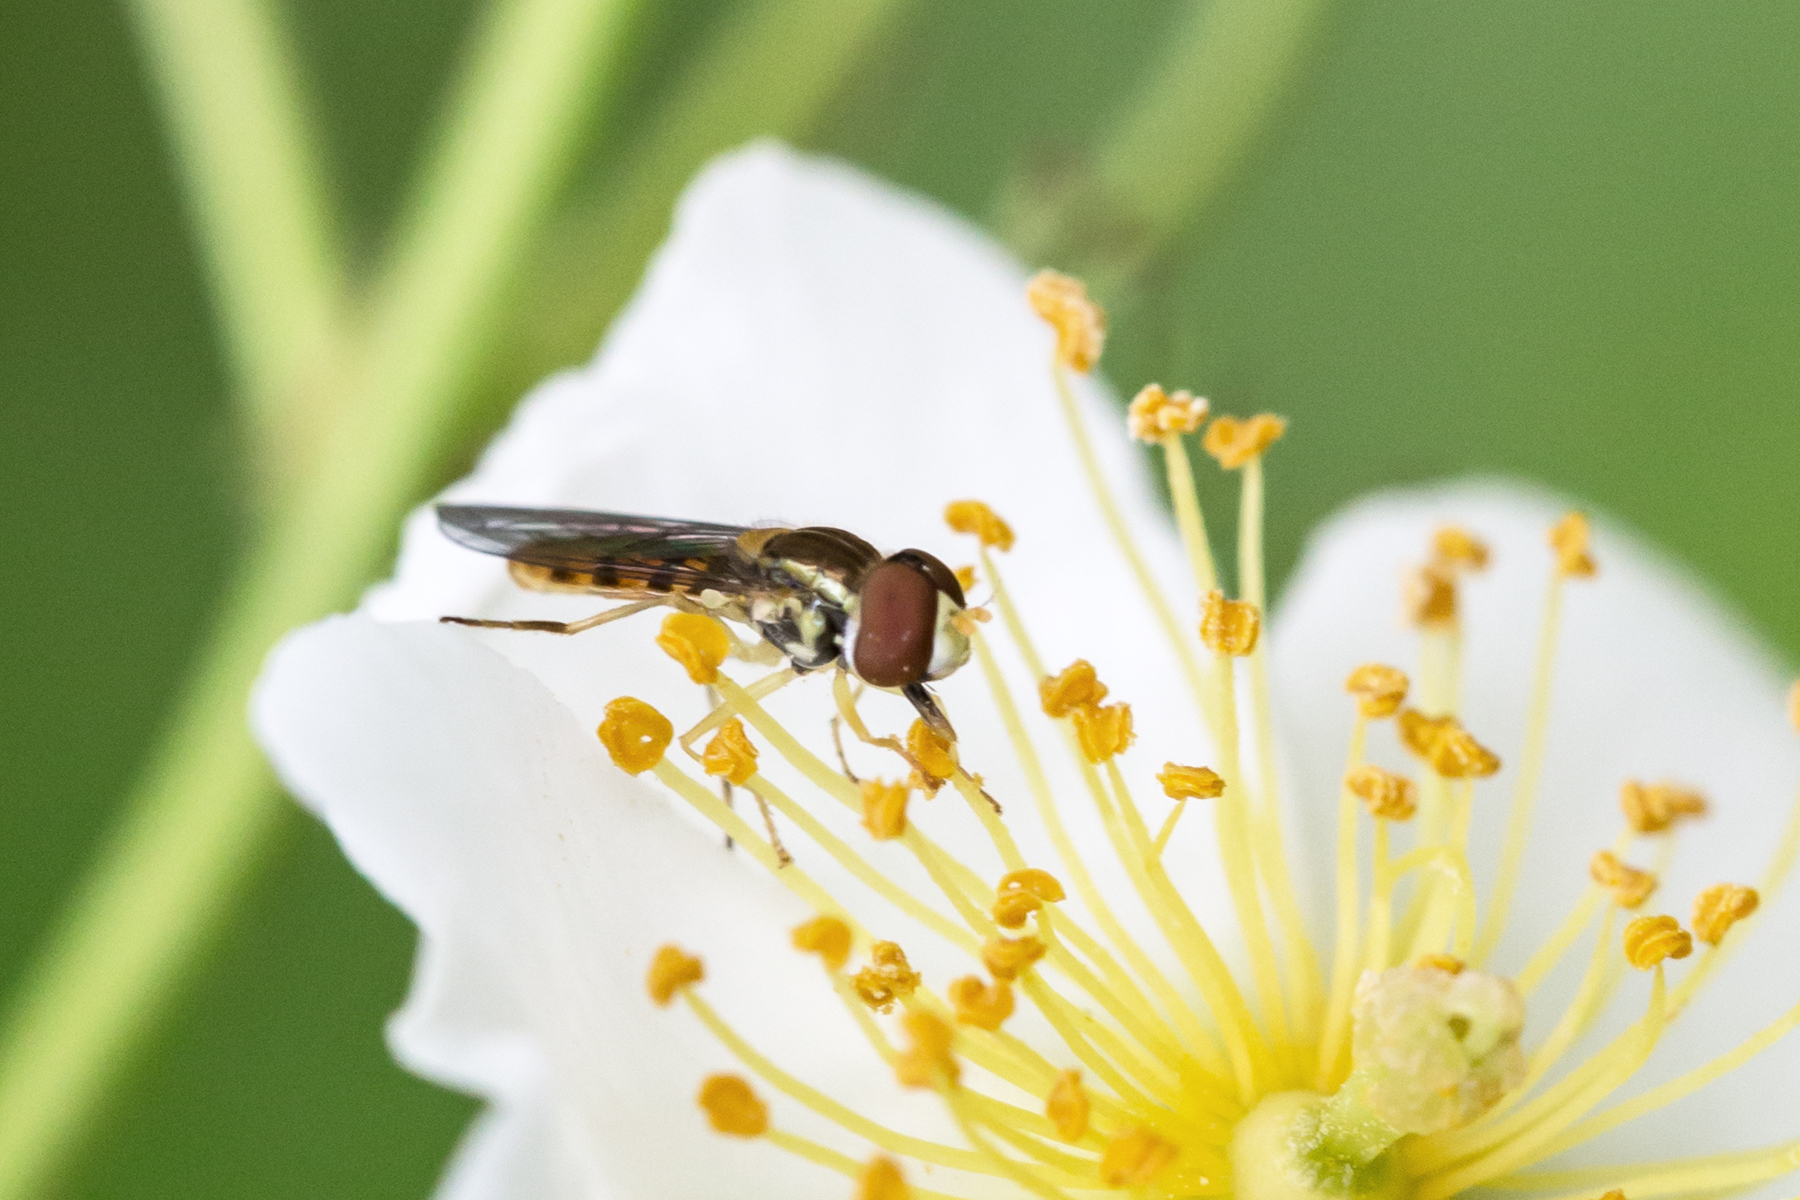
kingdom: Animalia
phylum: Arthropoda
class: Insecta
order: Diptera
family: Syrphidae
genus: Toxomerus
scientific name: Toxomerus marginatus
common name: Syrphid fly
